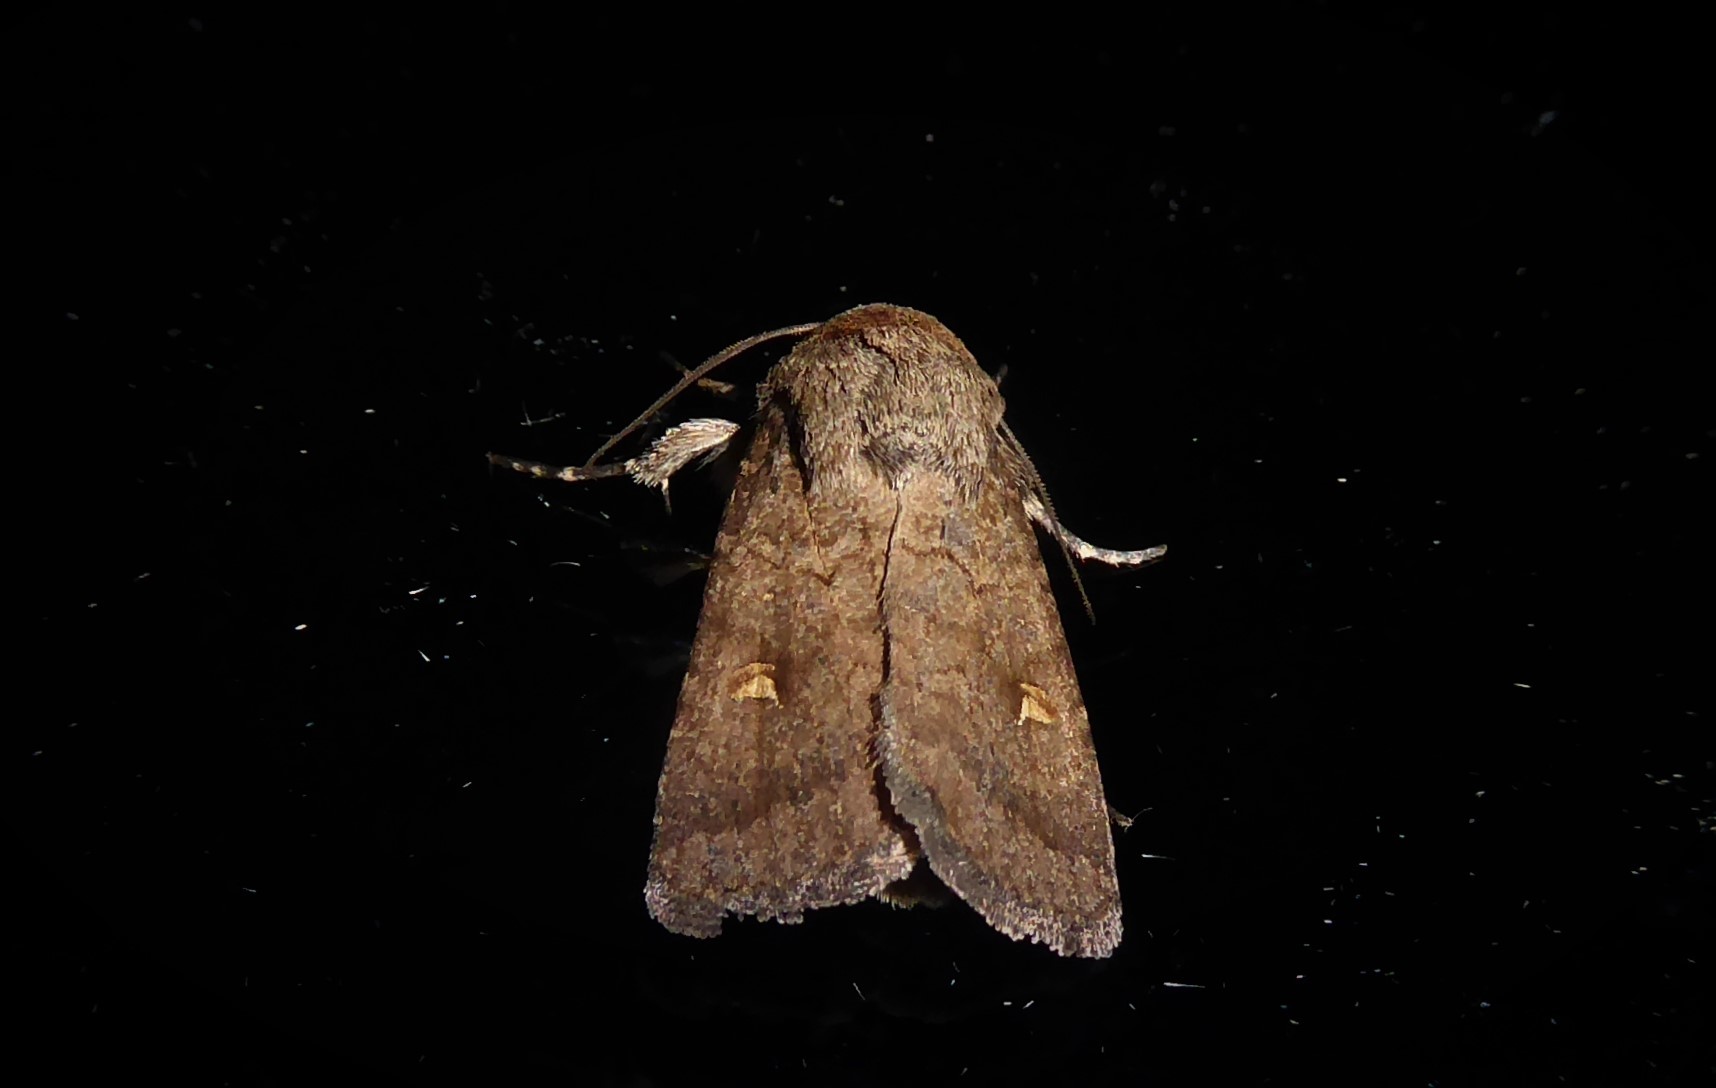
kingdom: Animalia
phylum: Arthropoda
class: Insecta
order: Lepidoptera
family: Noctuidae
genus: Proteuxoa
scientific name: Proteuxoa tetronycha
